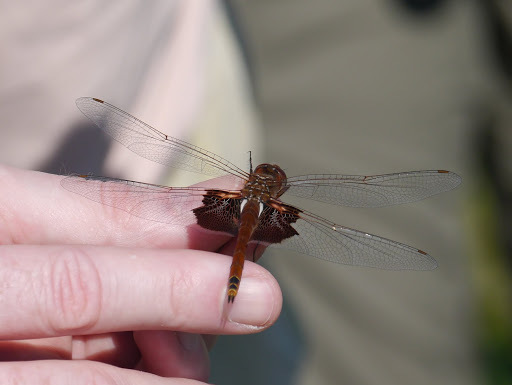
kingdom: Animalia
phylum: Arthropoda
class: Insecta
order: Odonata
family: Libellulidae
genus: Tramea
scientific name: Tramea carolina
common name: Carolina saddlebags
